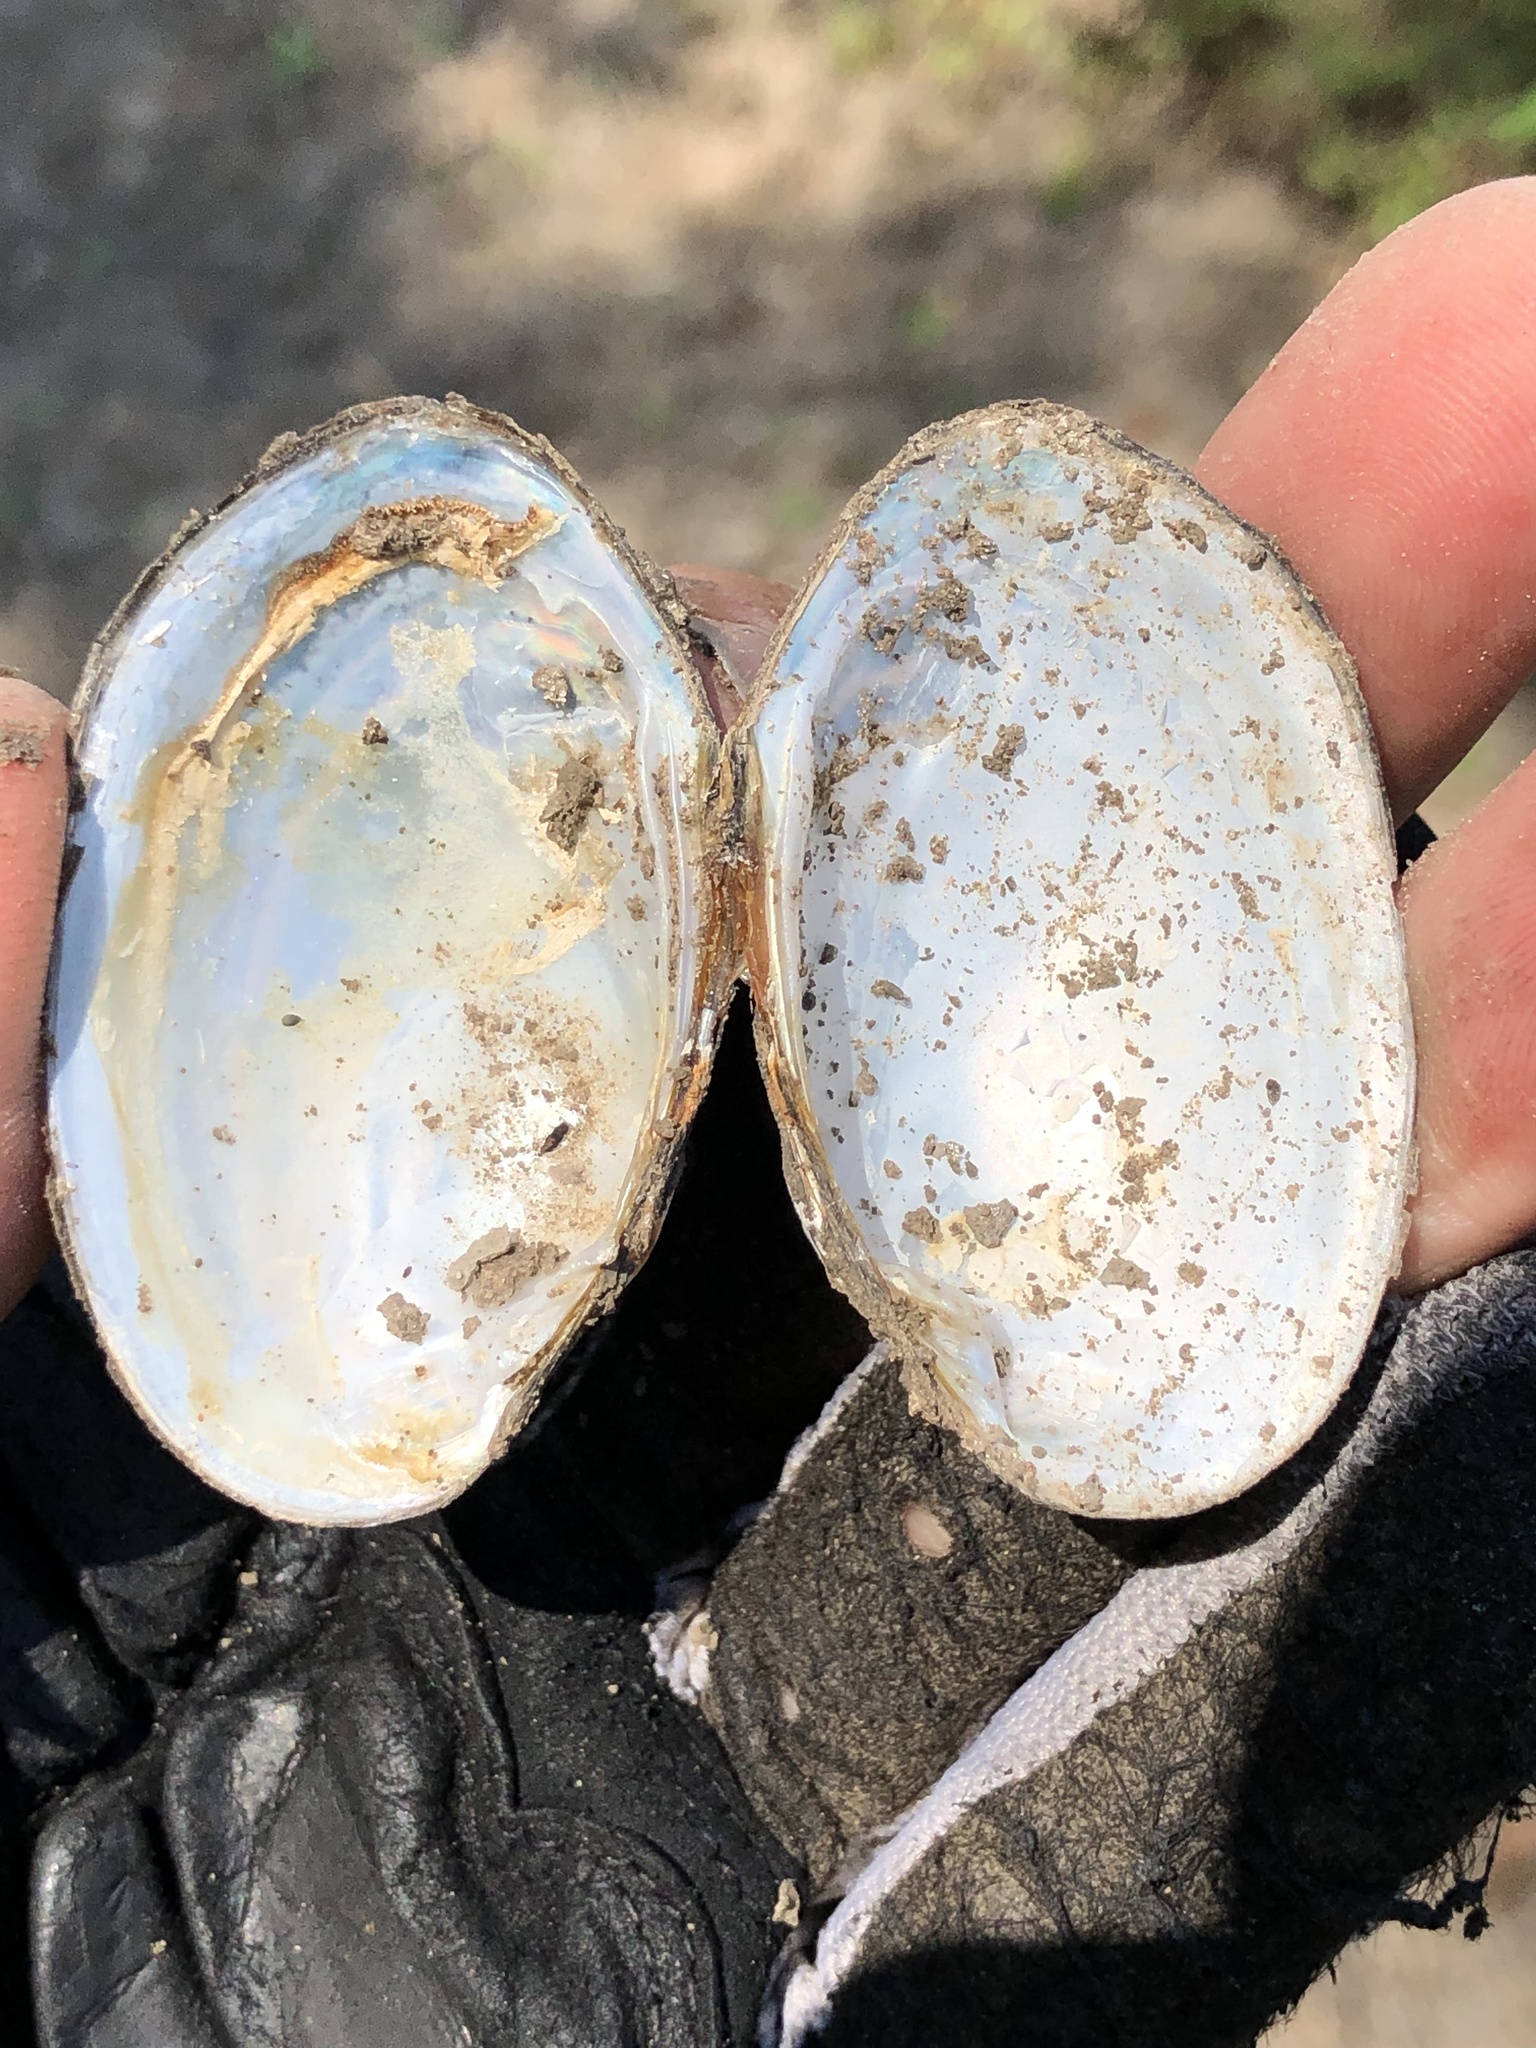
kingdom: Animalia
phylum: Mollusca
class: Bivalvia
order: Unionida
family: Unionidae
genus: Toxolasma
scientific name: Toxolasma texasiense
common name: Texas lilliput
